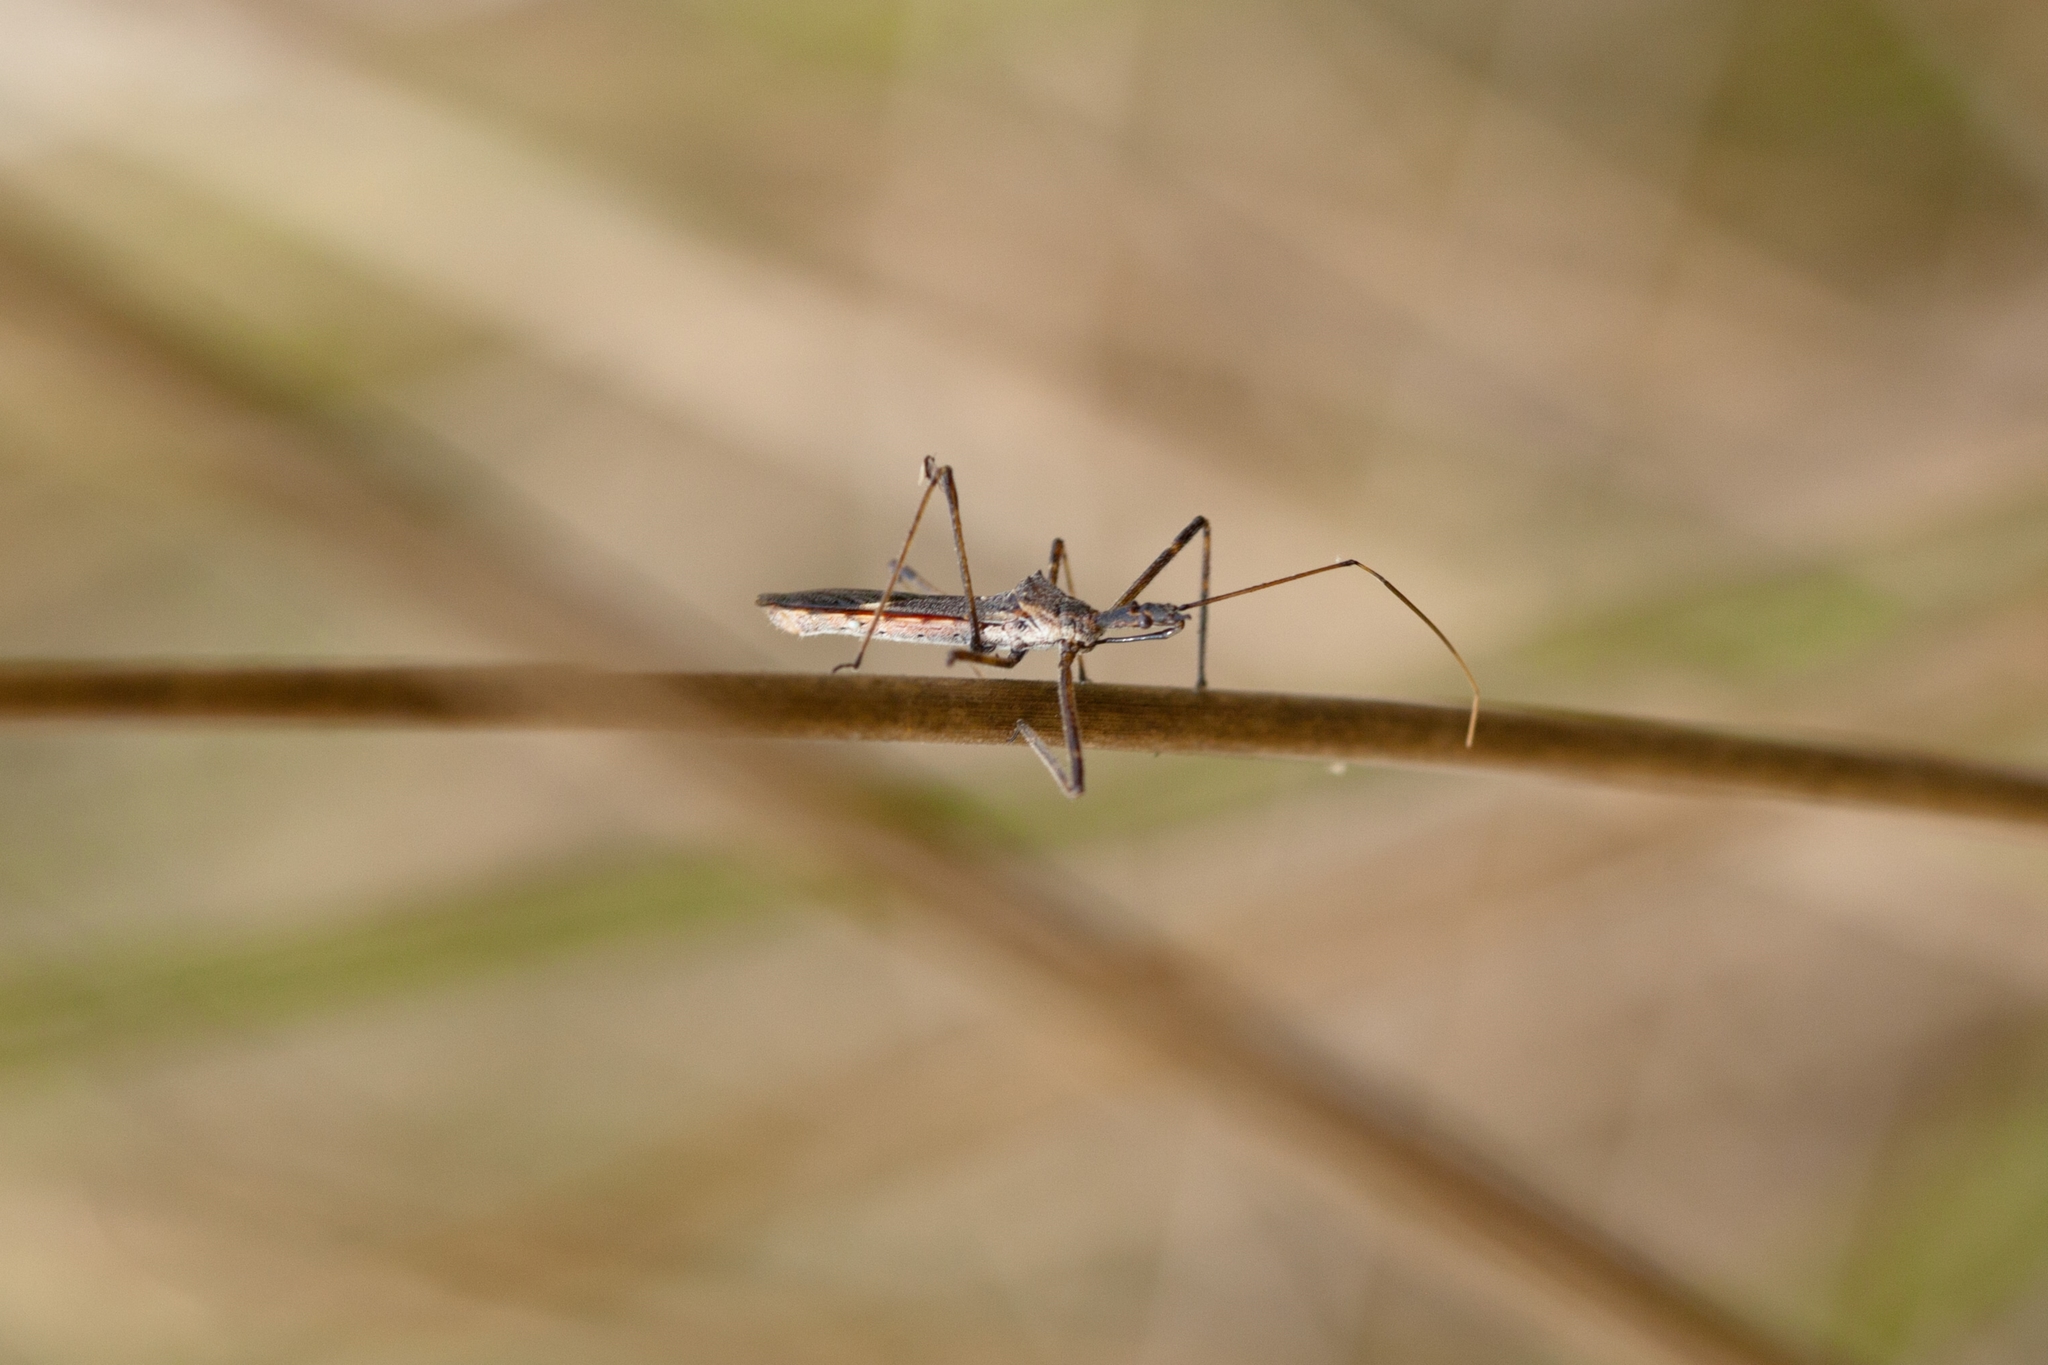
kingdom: Animalia
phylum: Arthropoda
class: Insecta
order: Hemiptera
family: Reduviidae
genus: Zelus
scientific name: Zelus tetracanthus
